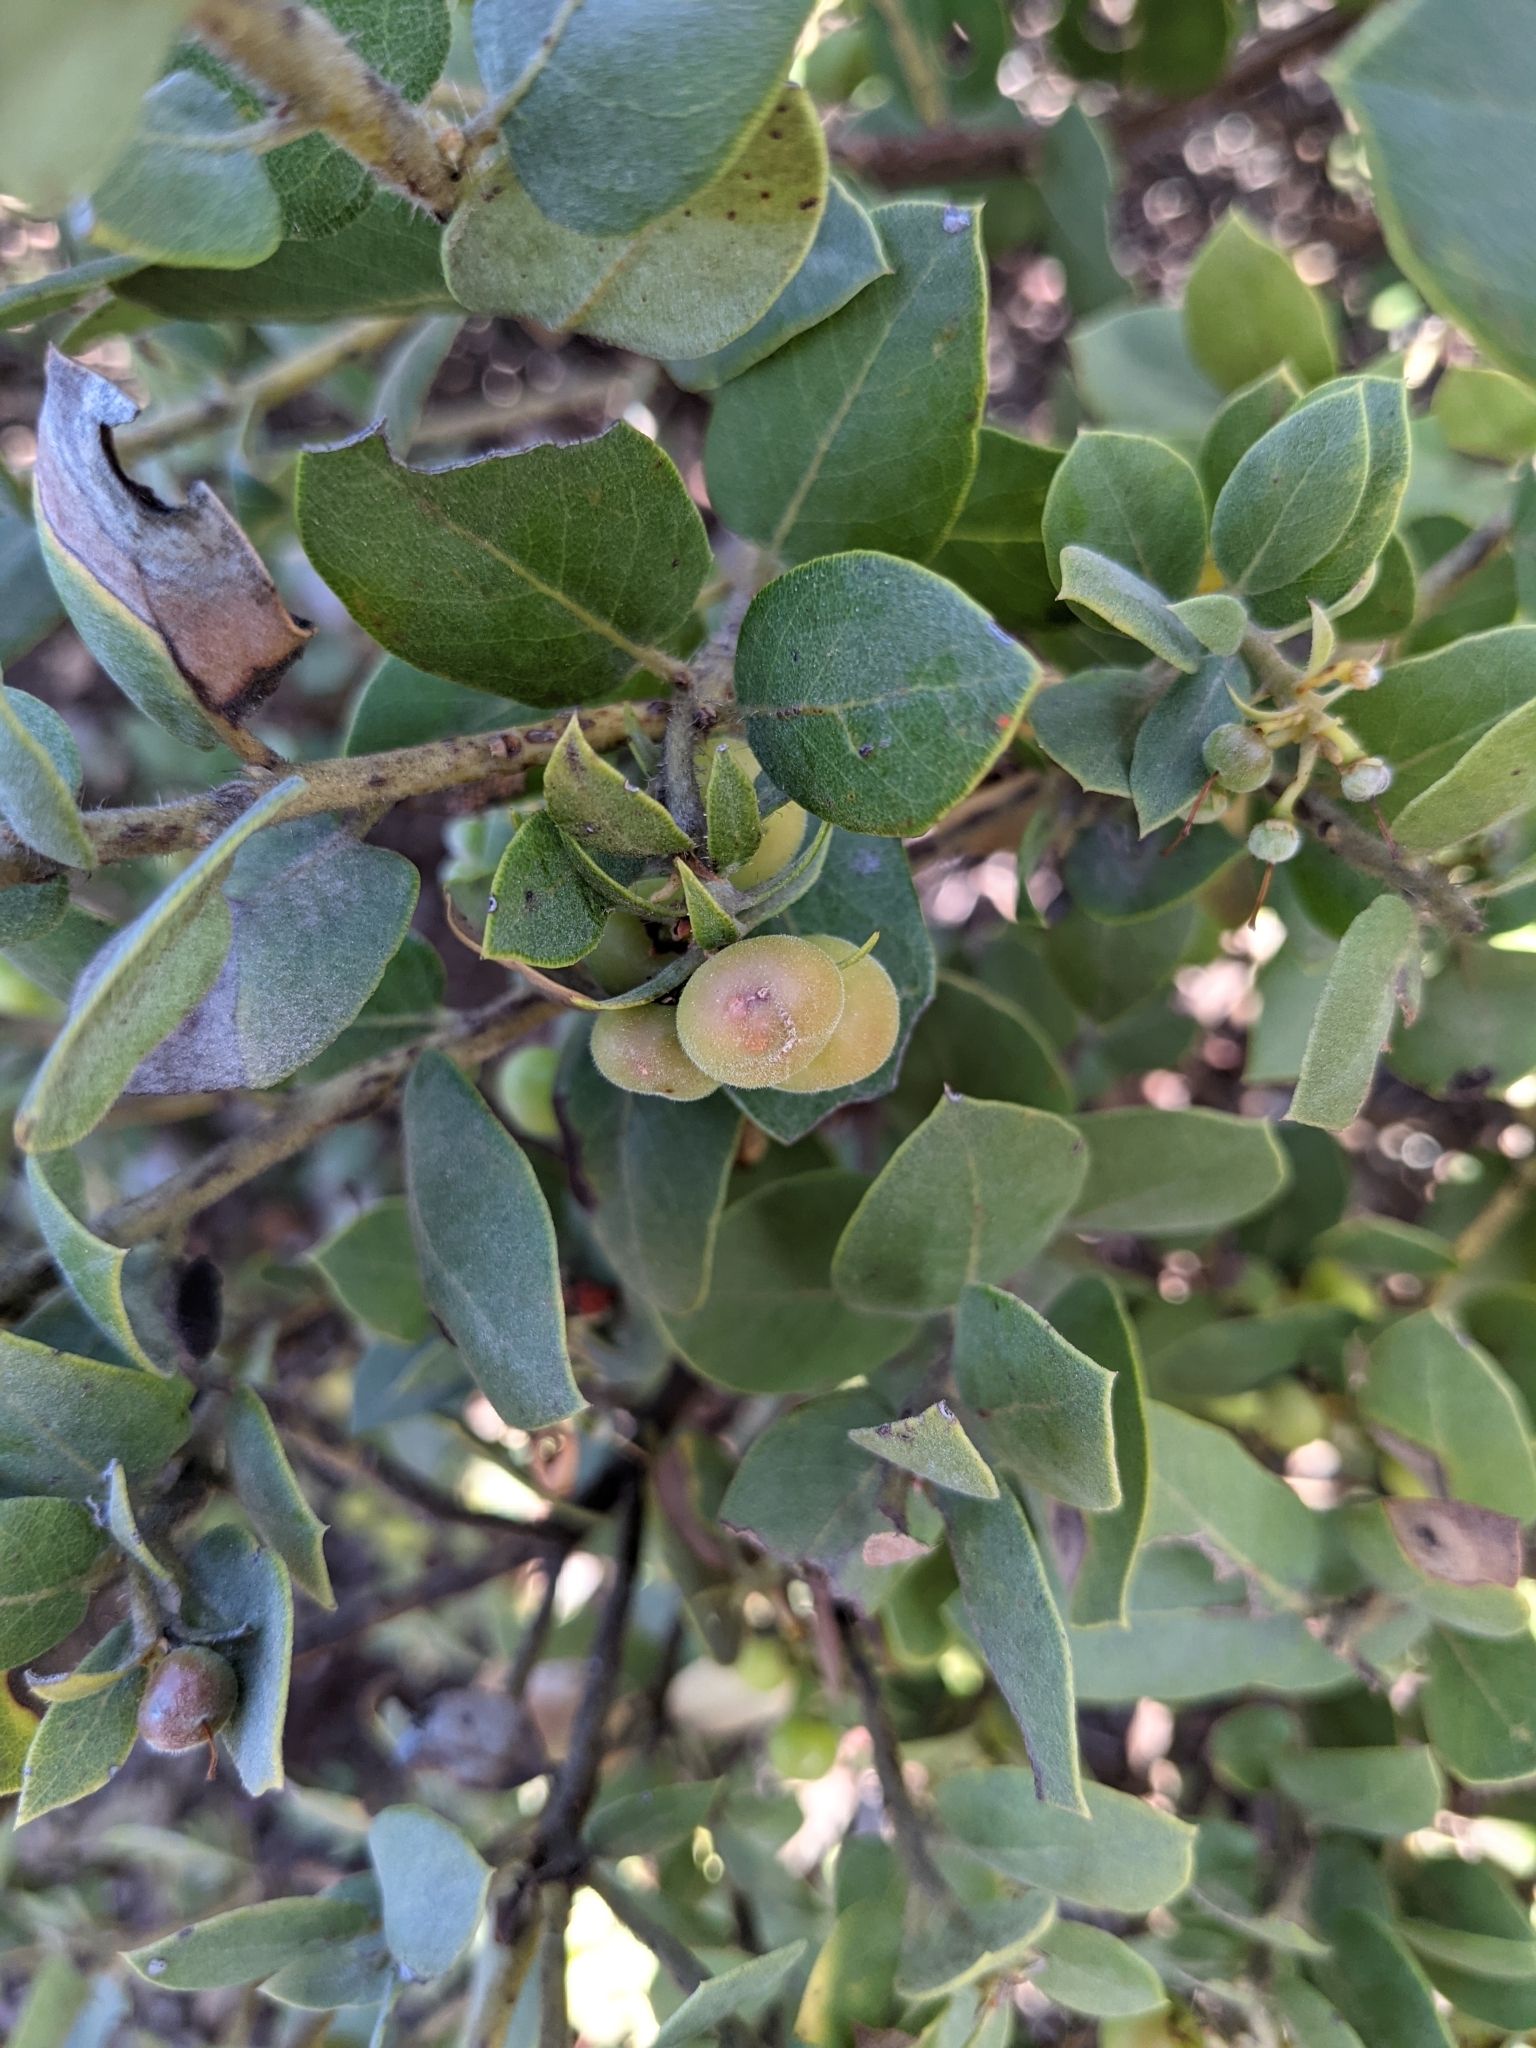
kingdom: Plantae
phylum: Tracheophyta
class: Magnoliopsida
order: Ericales
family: Ericaceae
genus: Arctostaphylos
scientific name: Arctostaphylos morroensis
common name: Morro manzanita
